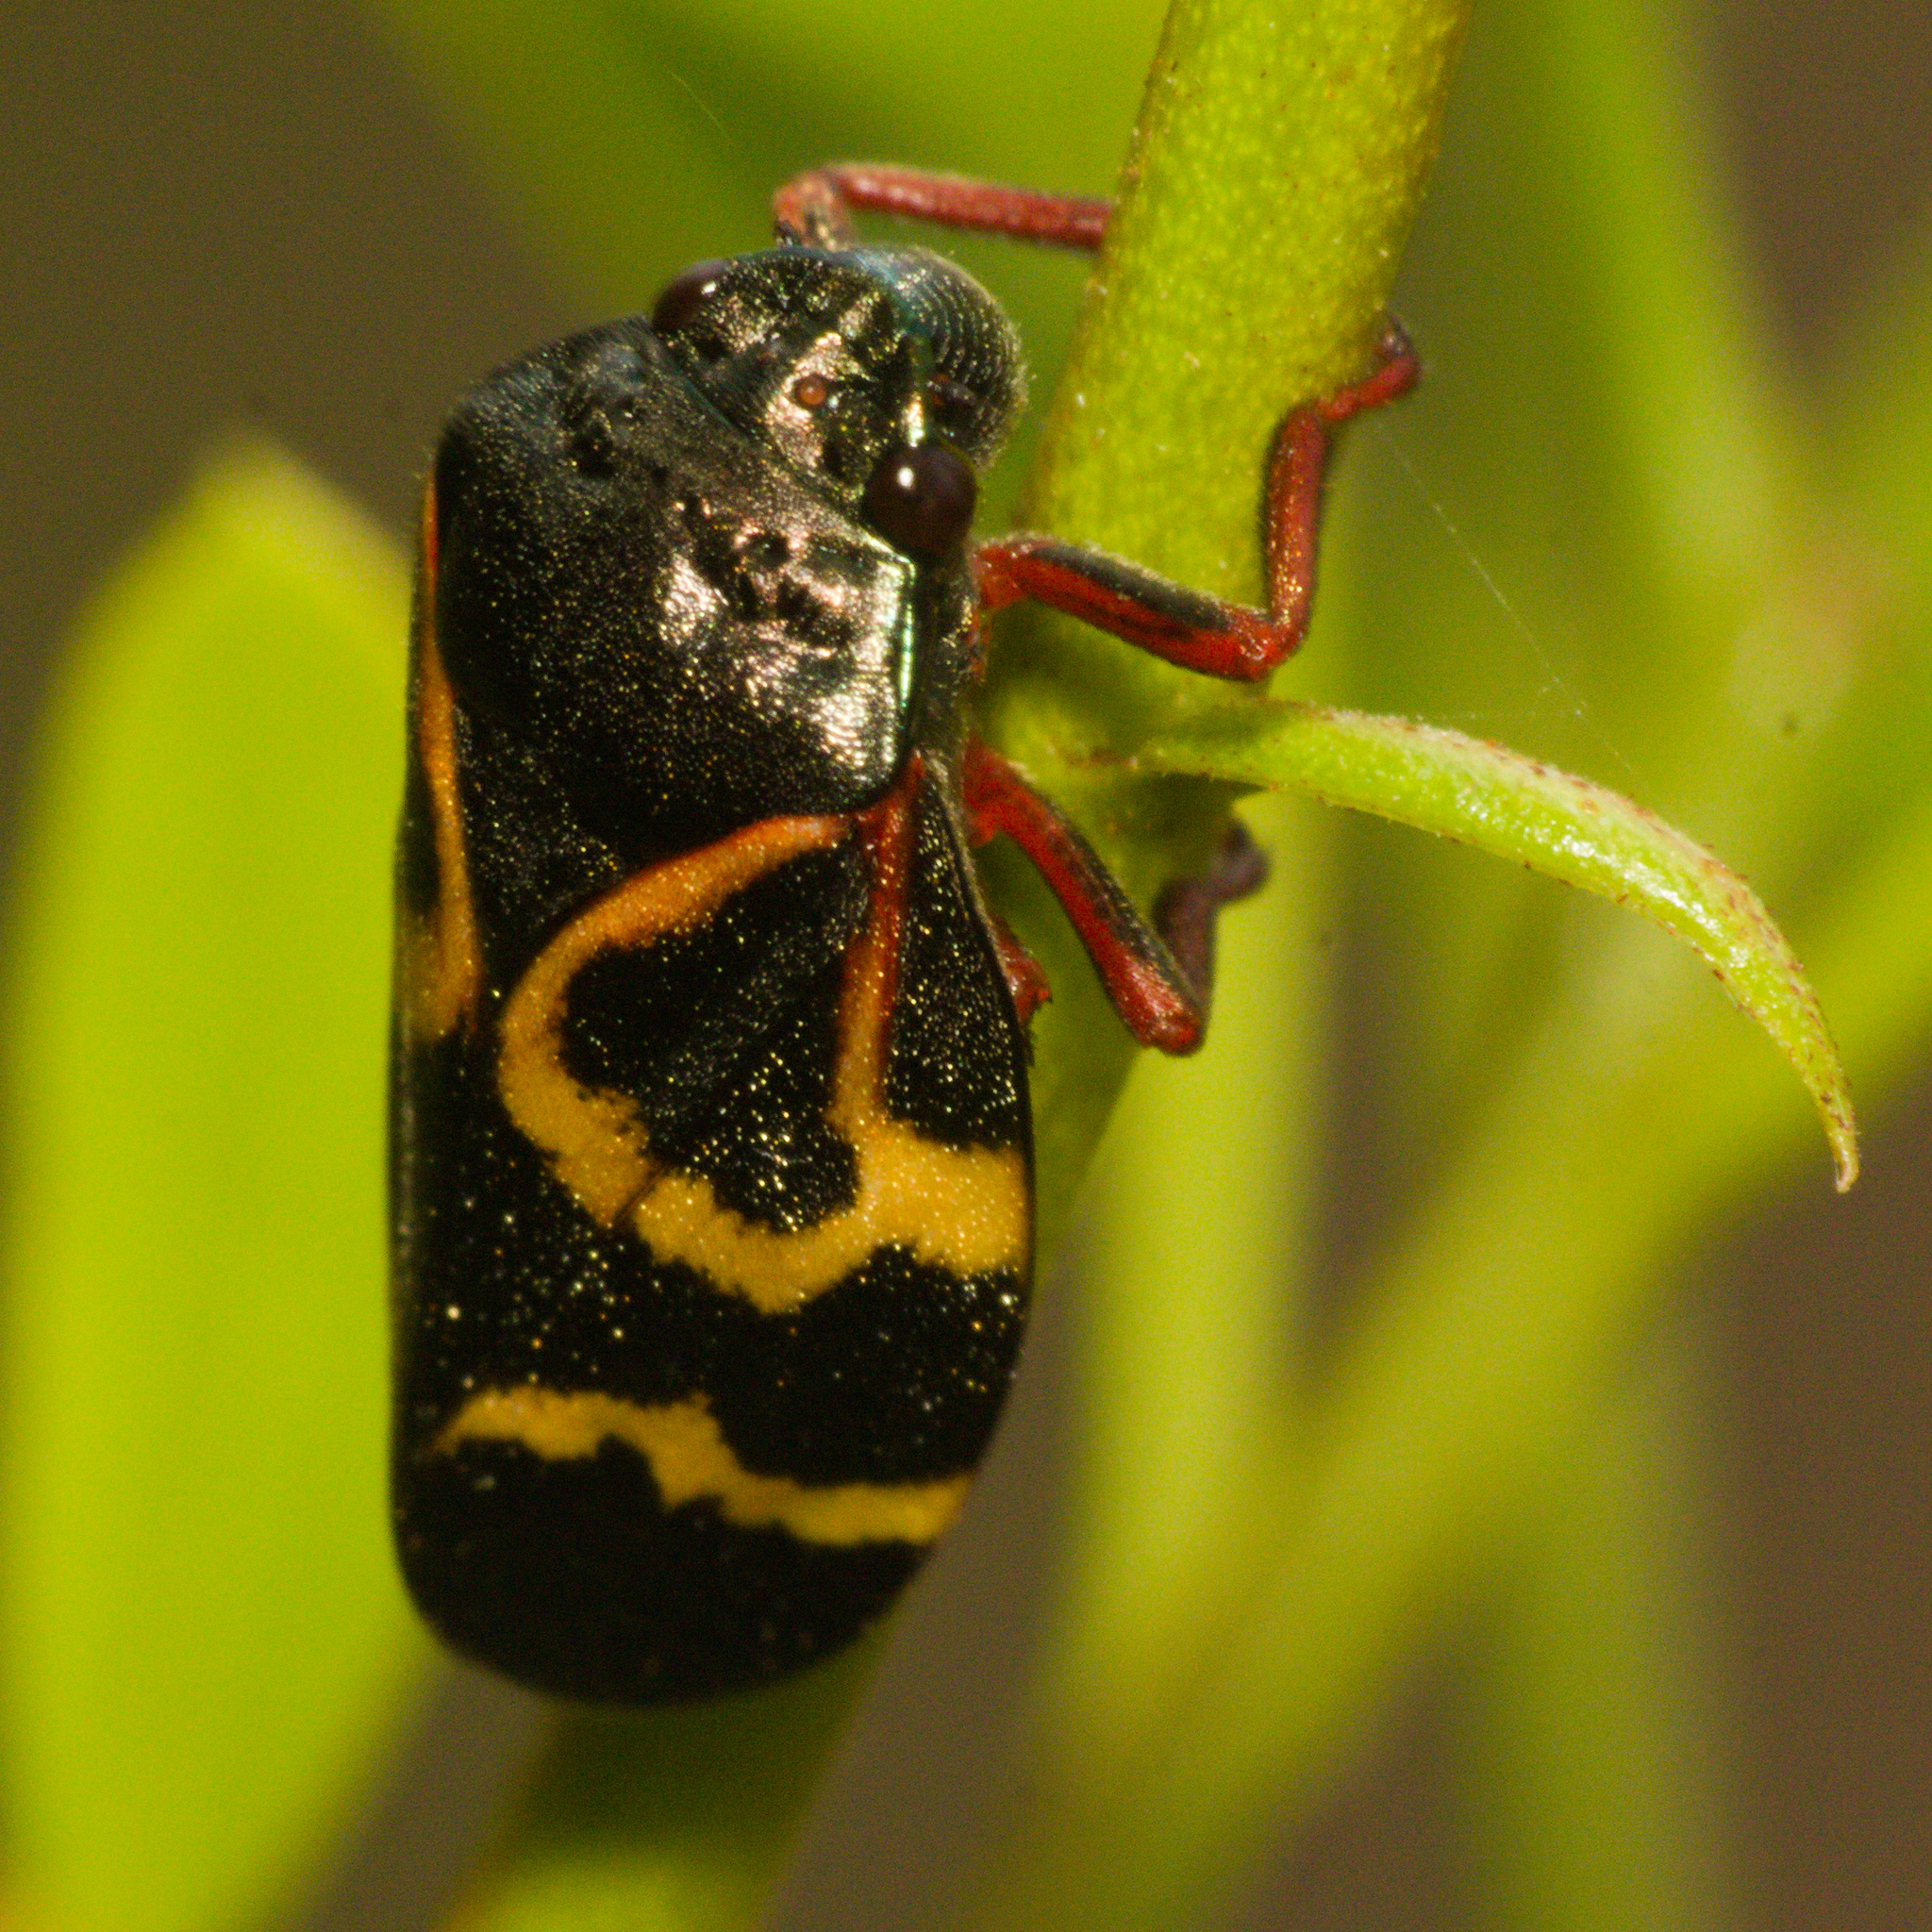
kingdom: Animalia
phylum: Arthropoda
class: Insecta
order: Hemiptera
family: Cercopidae
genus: Deois
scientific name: Deois flexuosa
